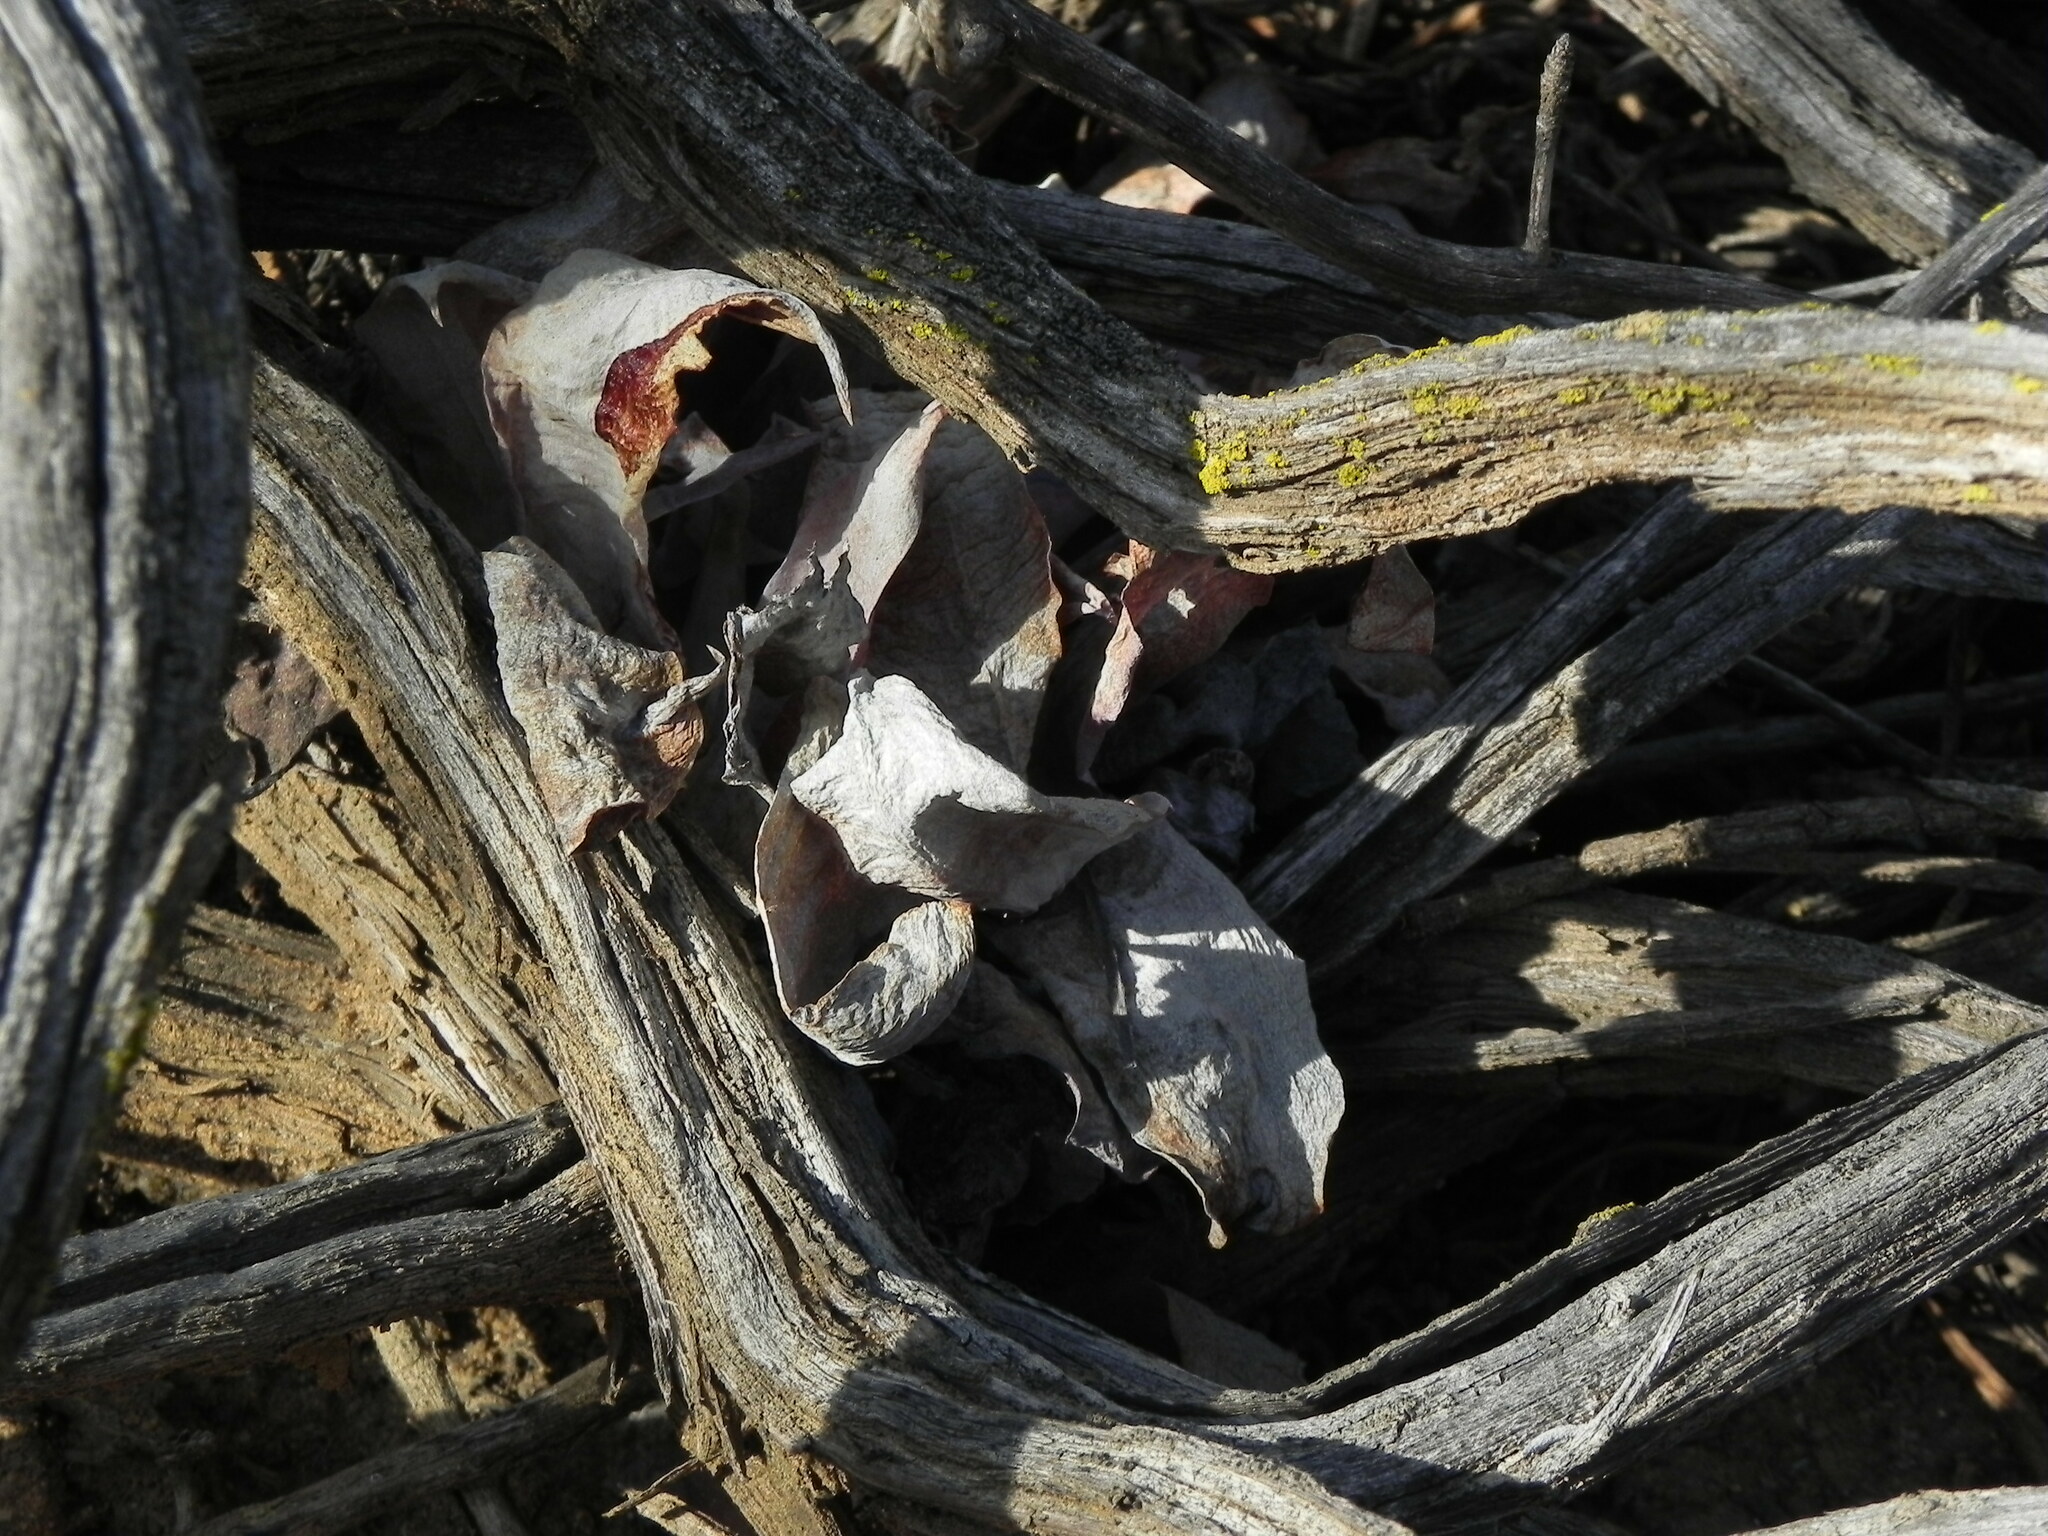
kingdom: Plantae
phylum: Tracheophyta
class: Magnoliopsida
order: Saxifragales
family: Crassulaceae
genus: Dudleya
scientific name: Dudleya pulverulenta
